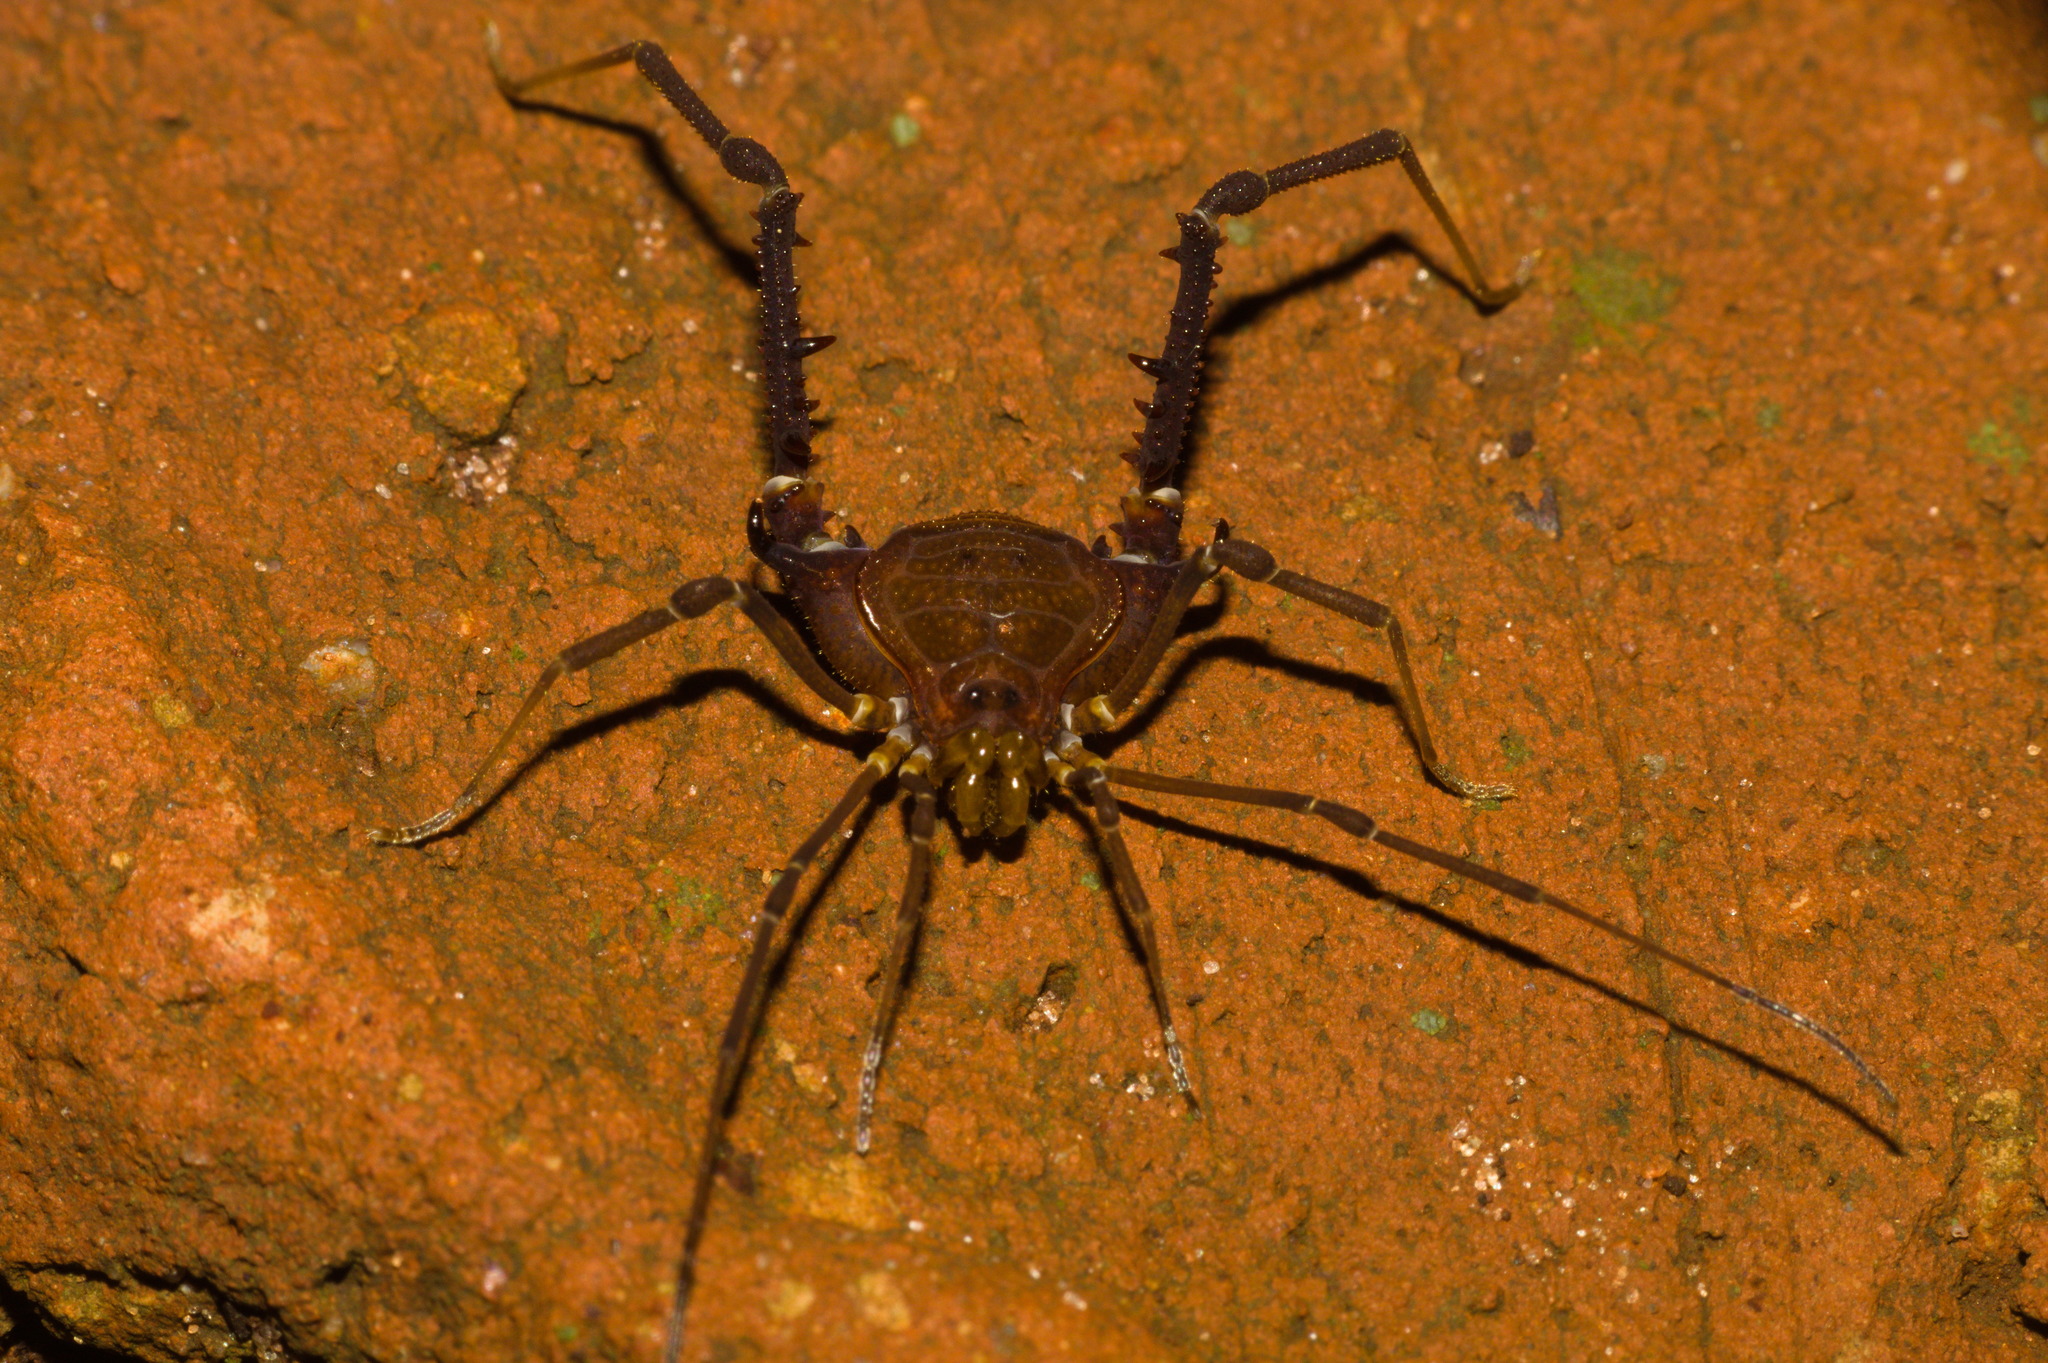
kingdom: Animalia
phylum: Arthropoda
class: Arachnida
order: Opiliones
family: Gonyleptidae
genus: Opisthoplatus
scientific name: Opisthoplatus prospicuus
